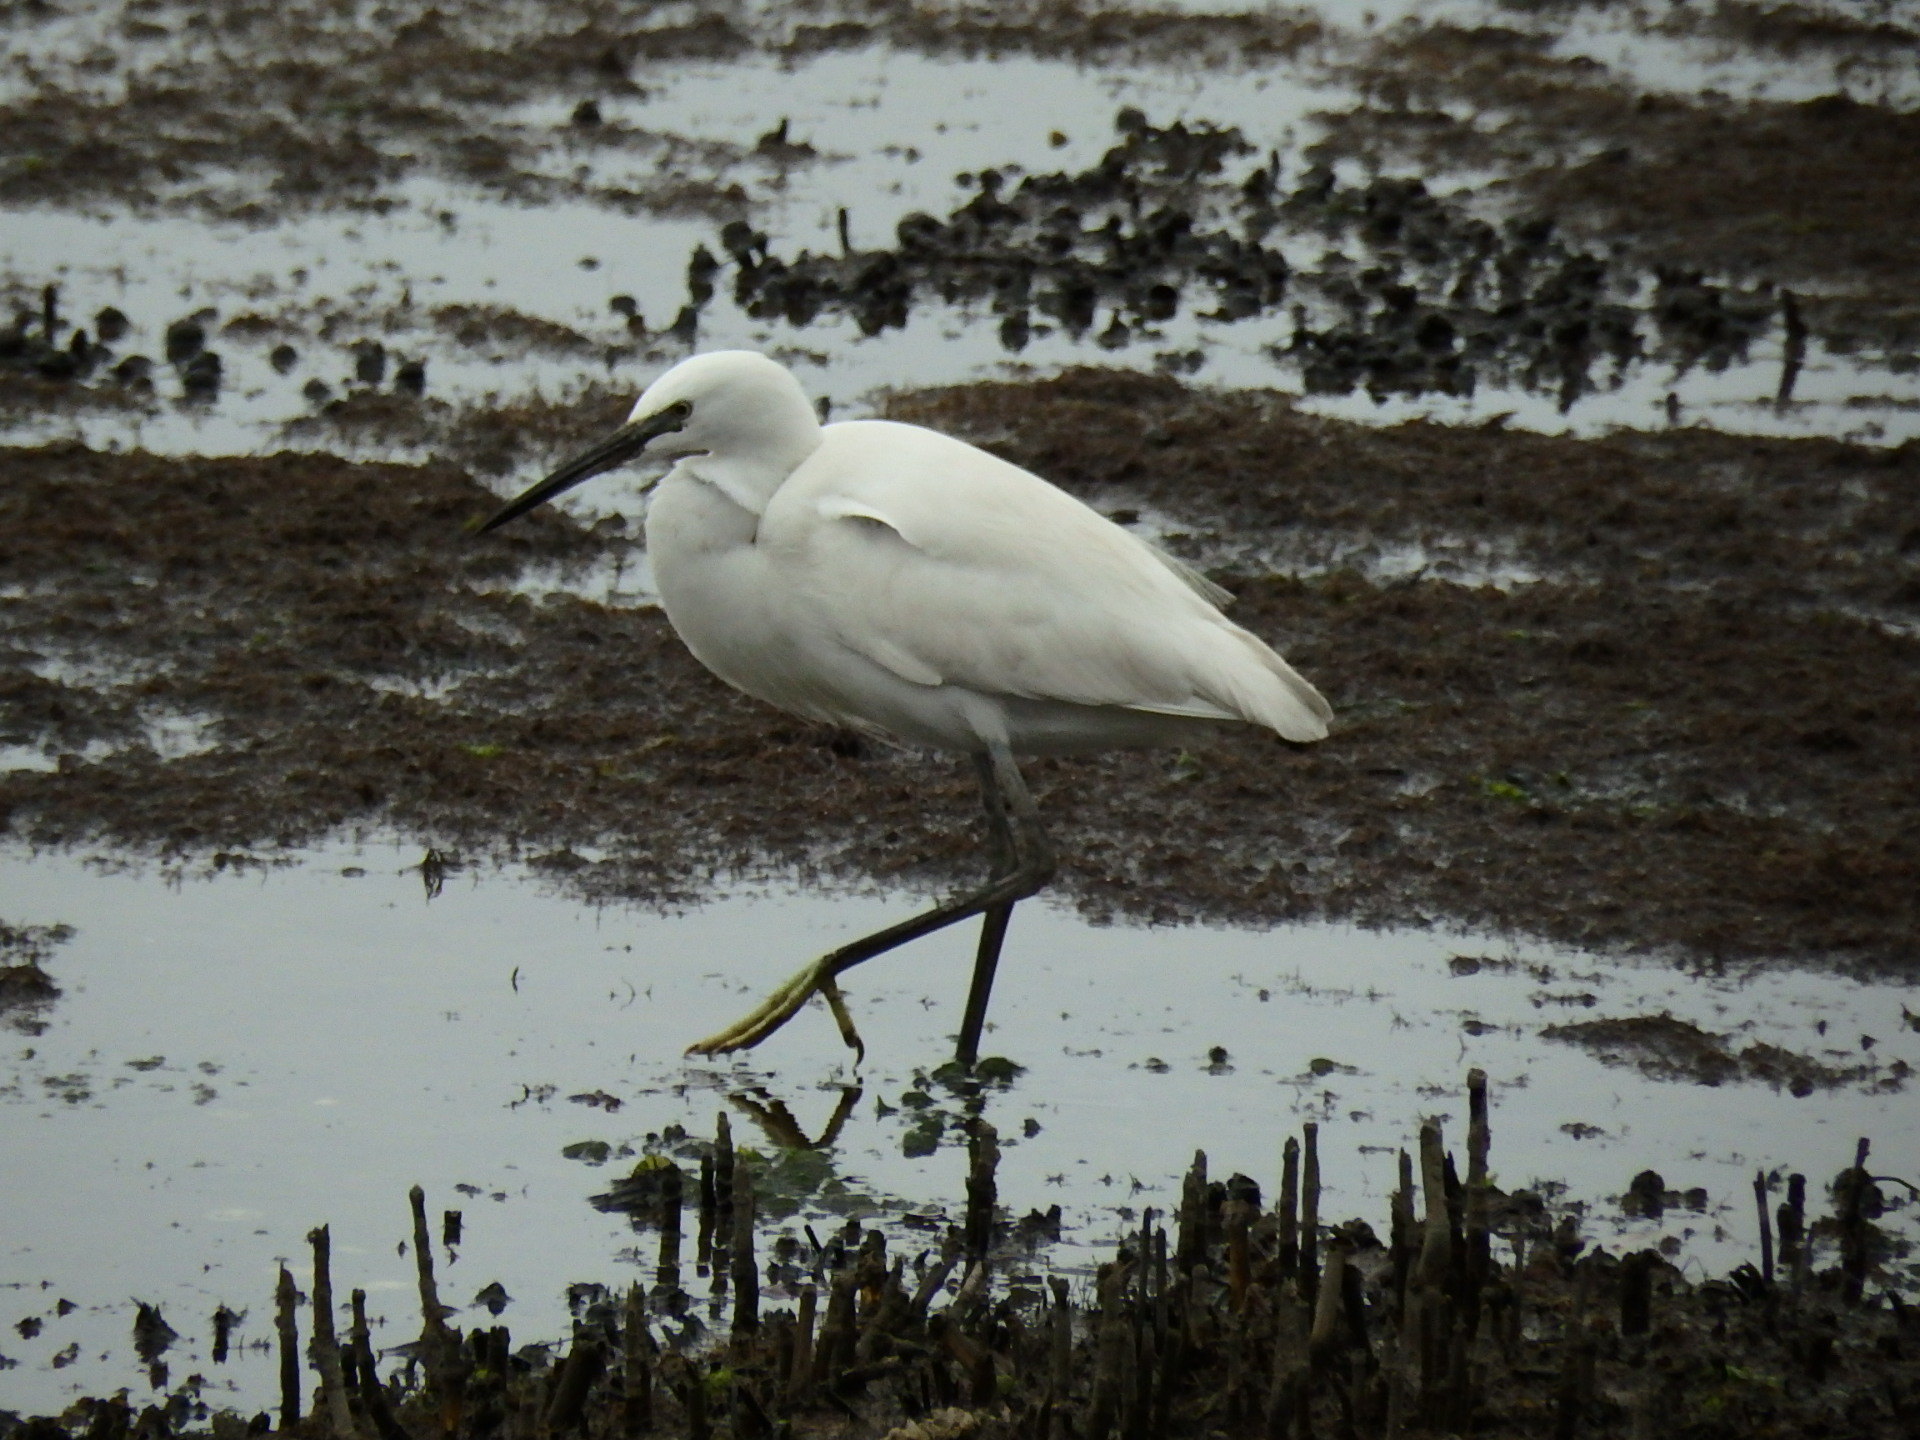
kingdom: Animalia
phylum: Chordata
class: Aves
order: Pelecaniformes
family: Ardeidae
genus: Egretta
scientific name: Egretta garzetta
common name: Little egret
